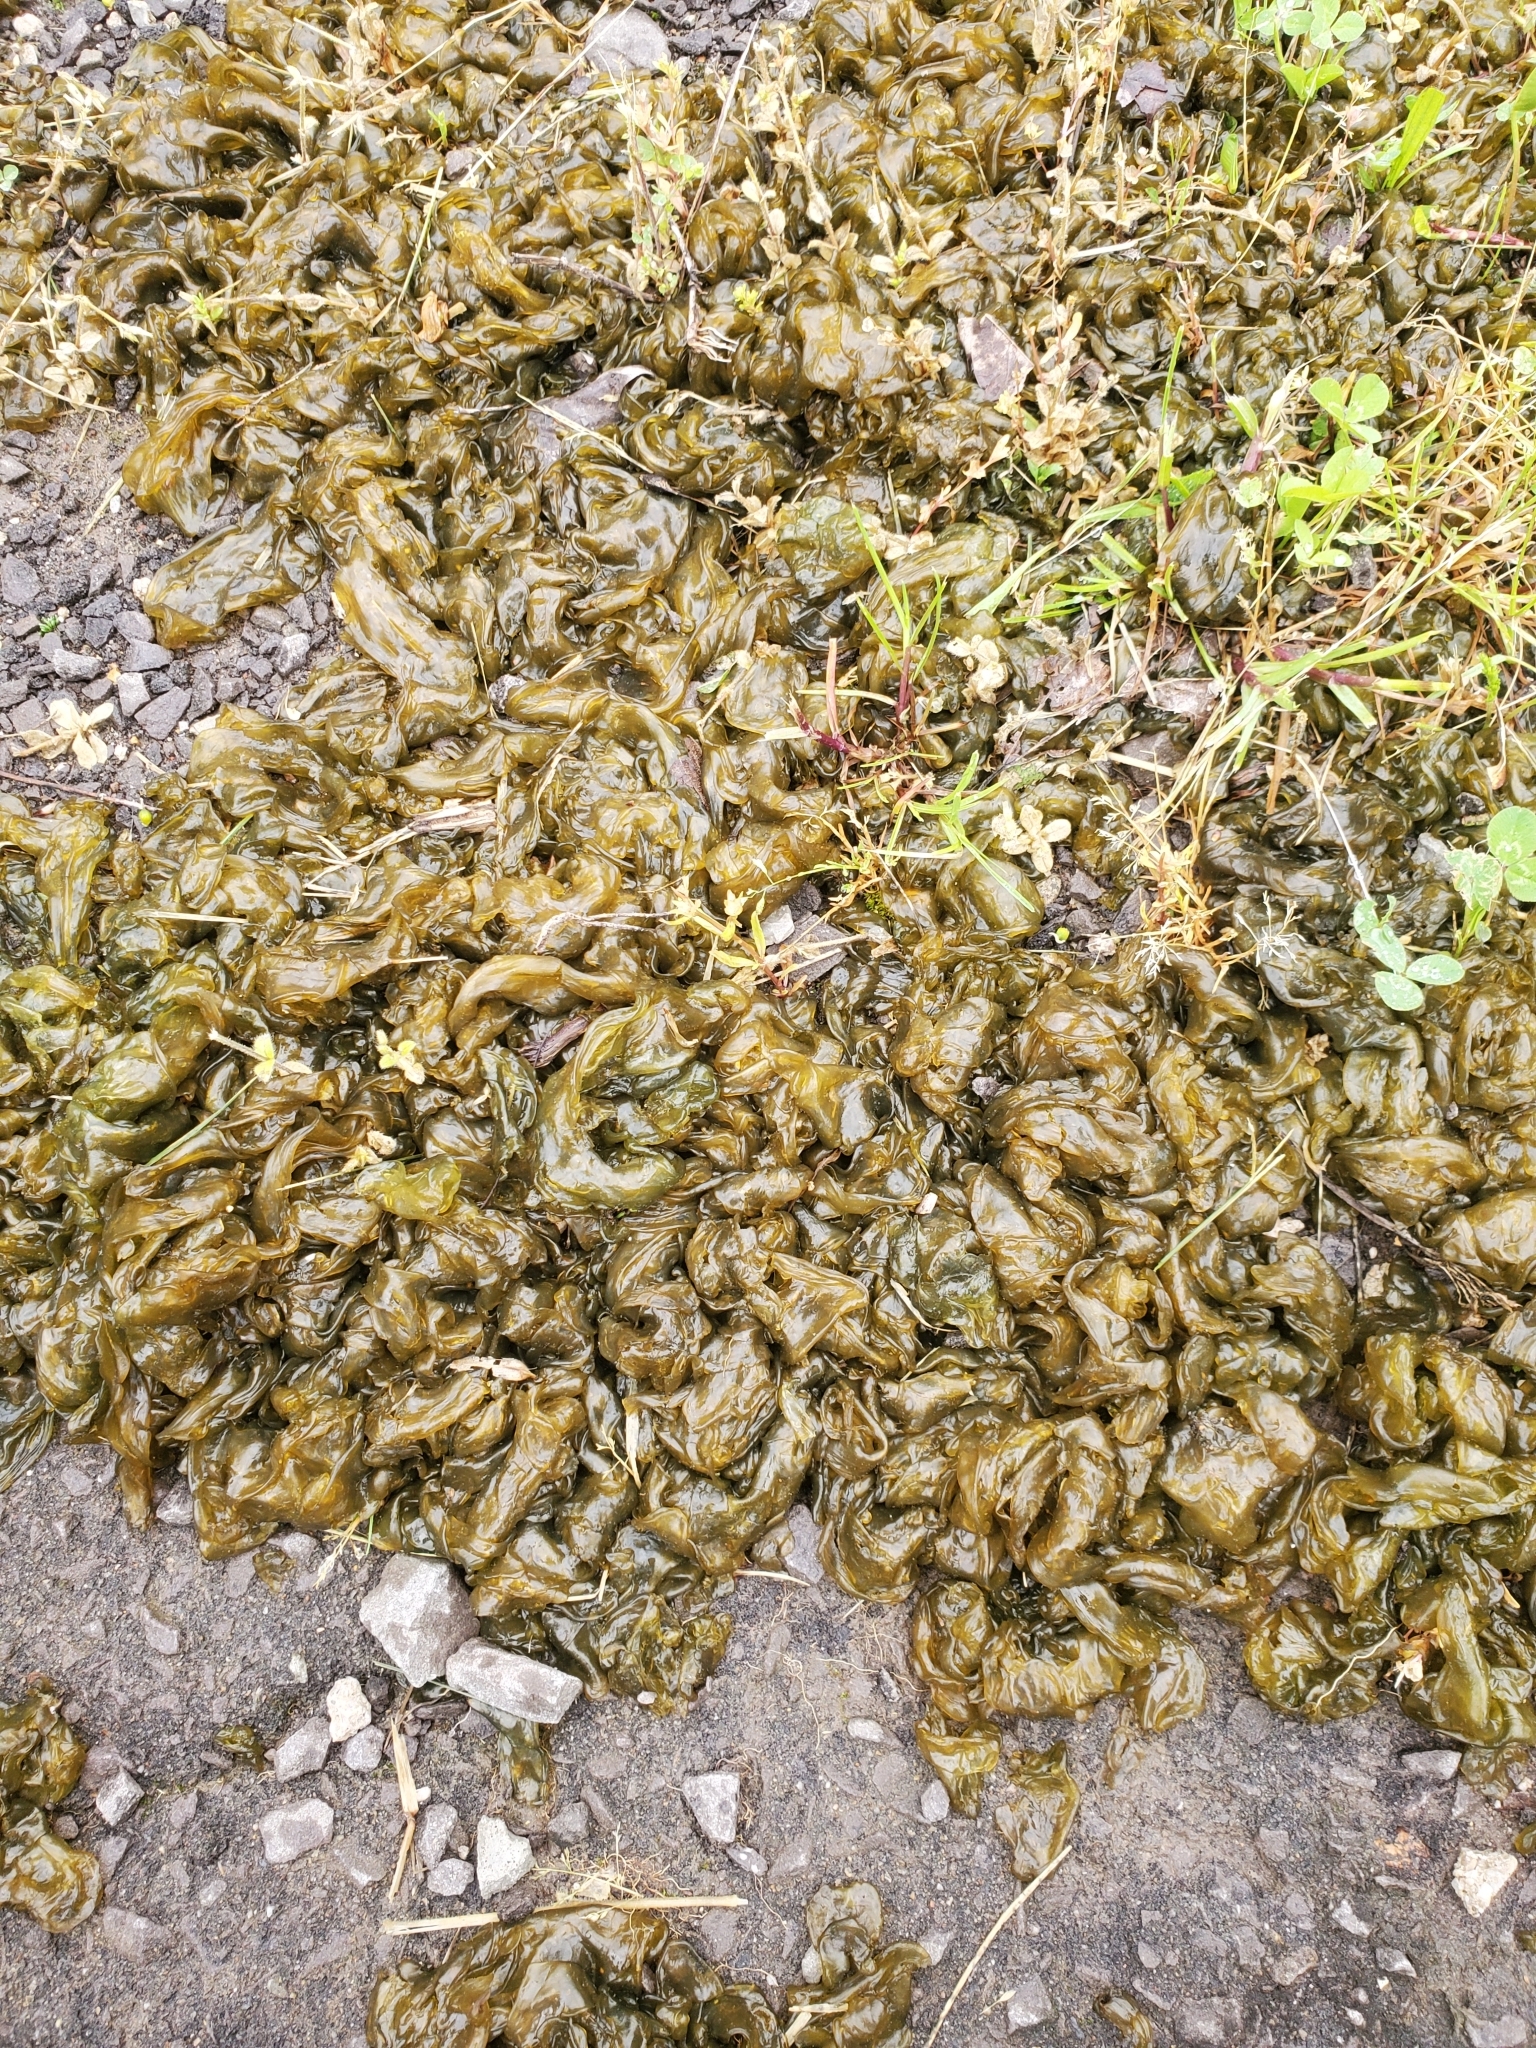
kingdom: Bacteria
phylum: Cyanobacteria
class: Cyanobacteriia
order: Cyanobacteriales
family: Nostocaceae
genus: Nostoc
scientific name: Nostoc commune
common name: Star jelly
